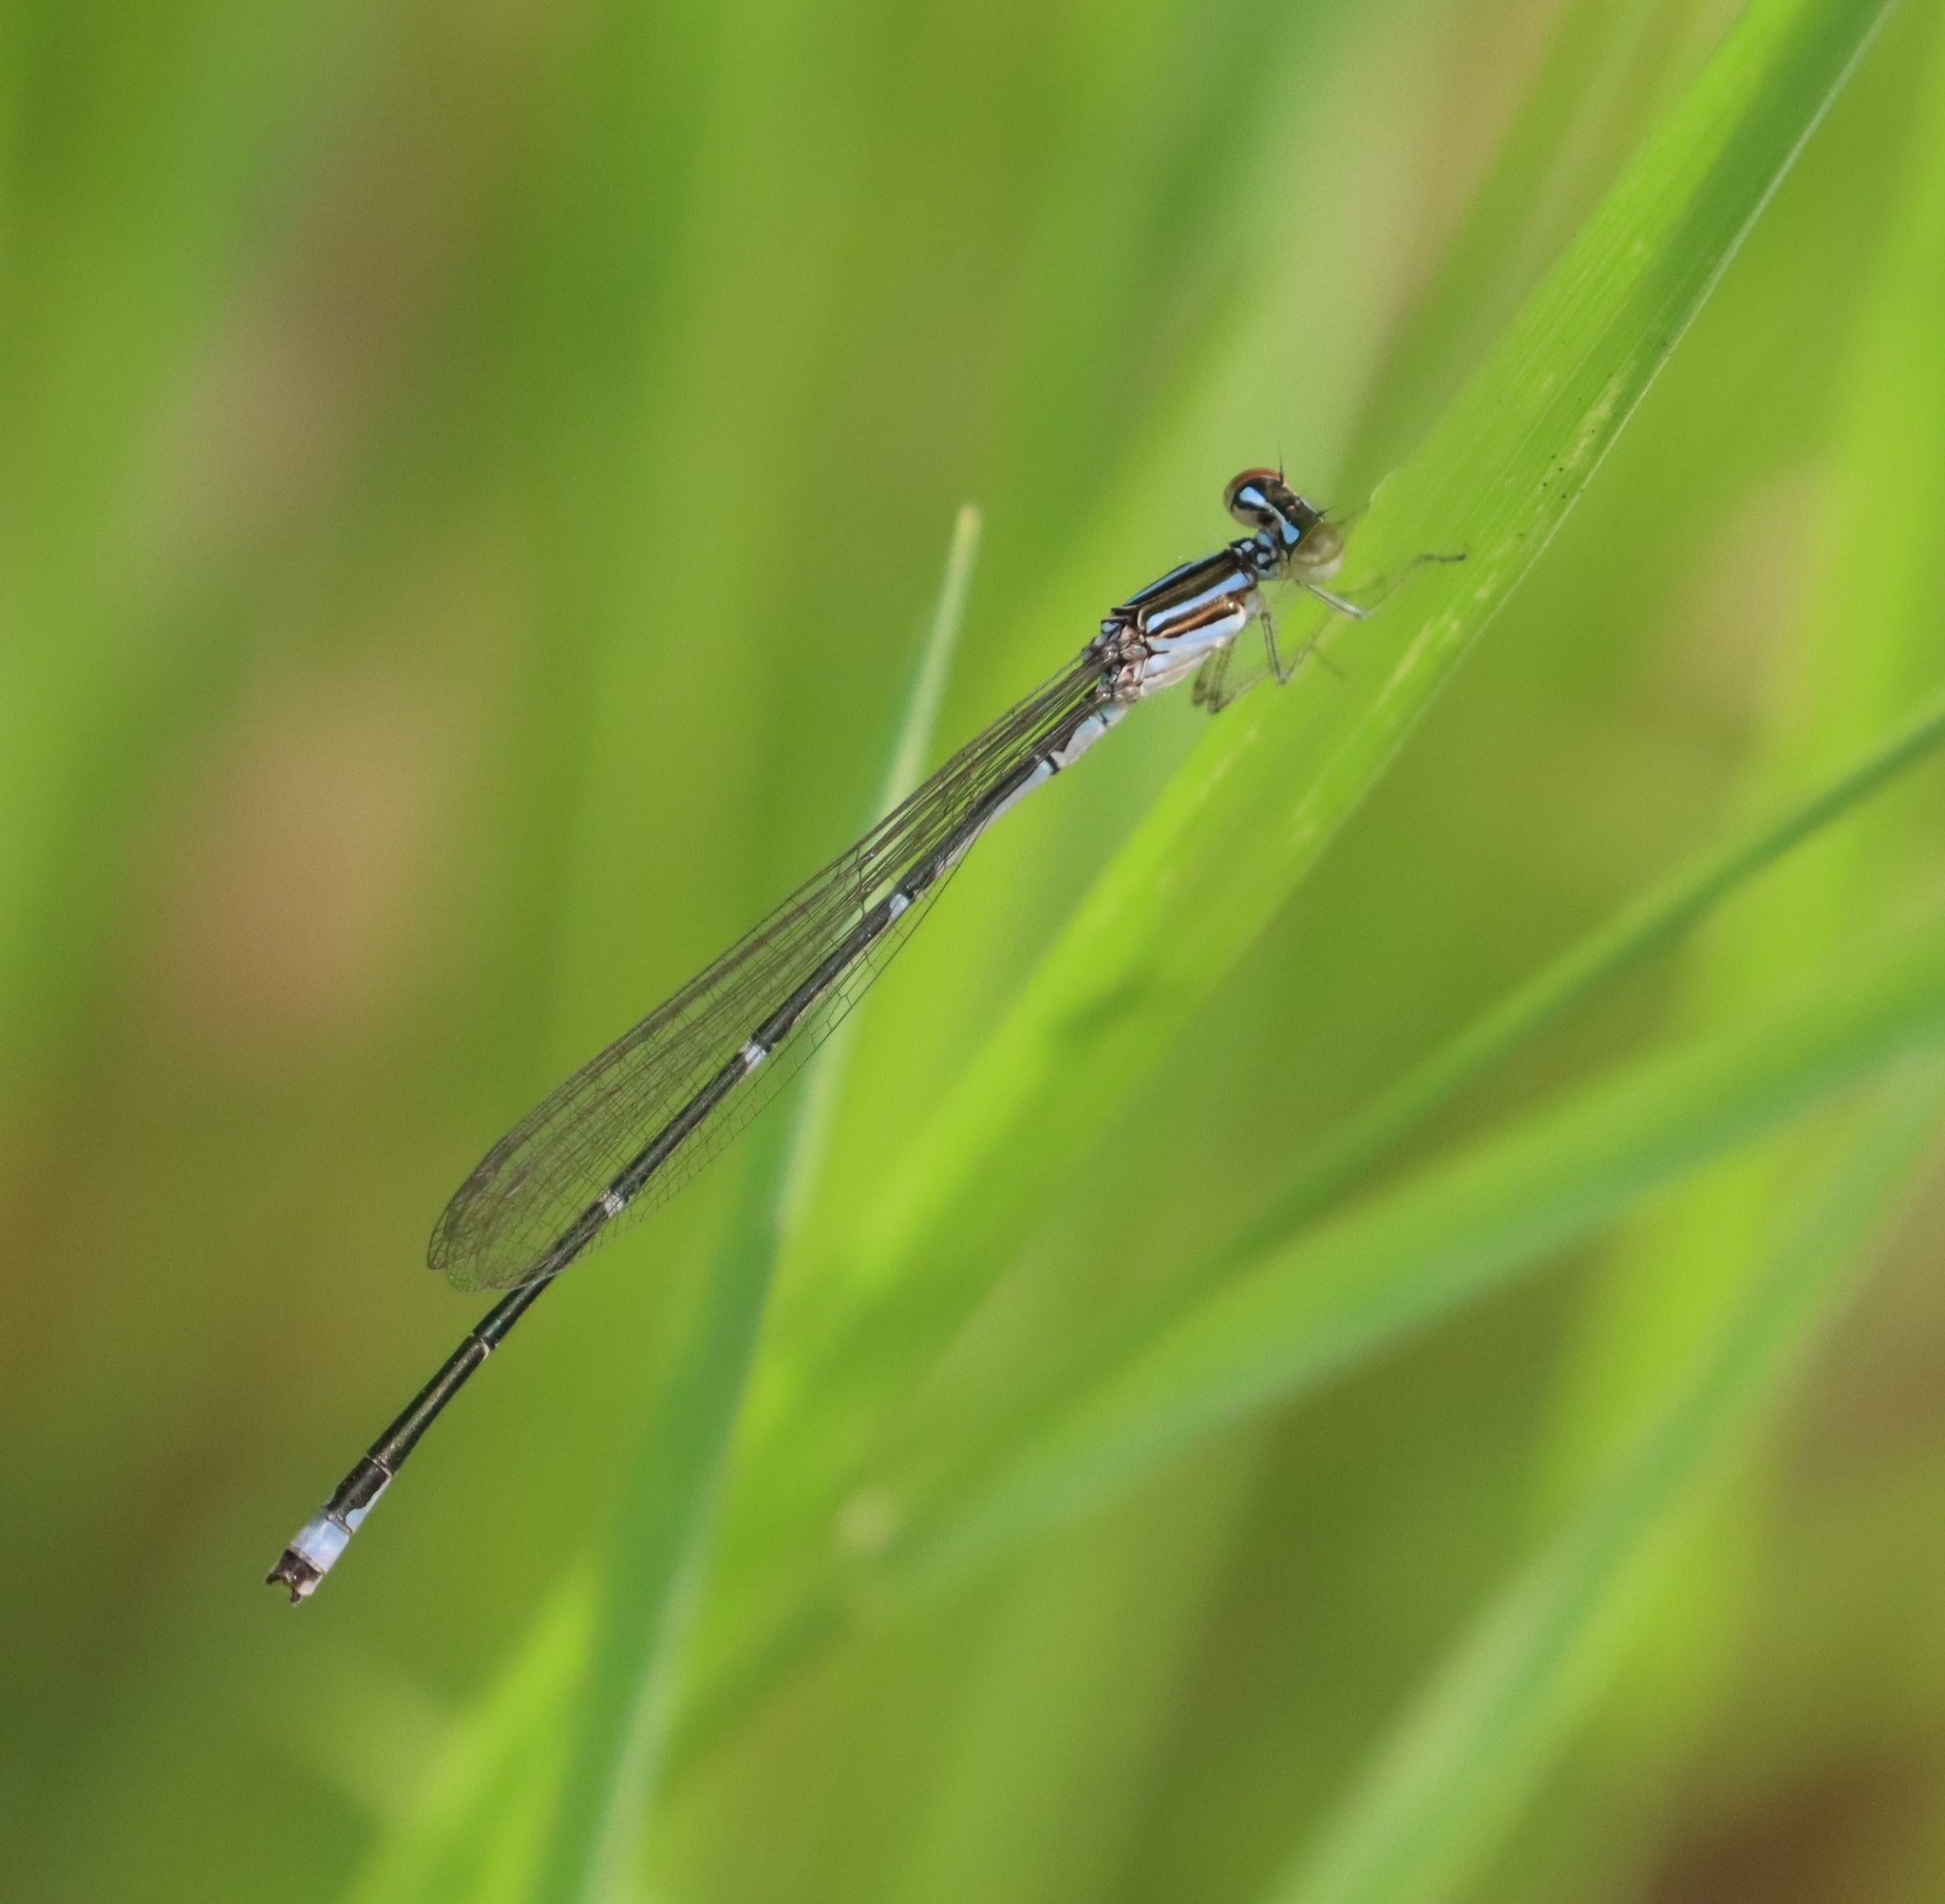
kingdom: Animalia
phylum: Arthropoda
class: Insecta
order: Odonata
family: Coenagrionidae
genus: Enallagma
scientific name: Enallagma exsulans
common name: Stream bluet
